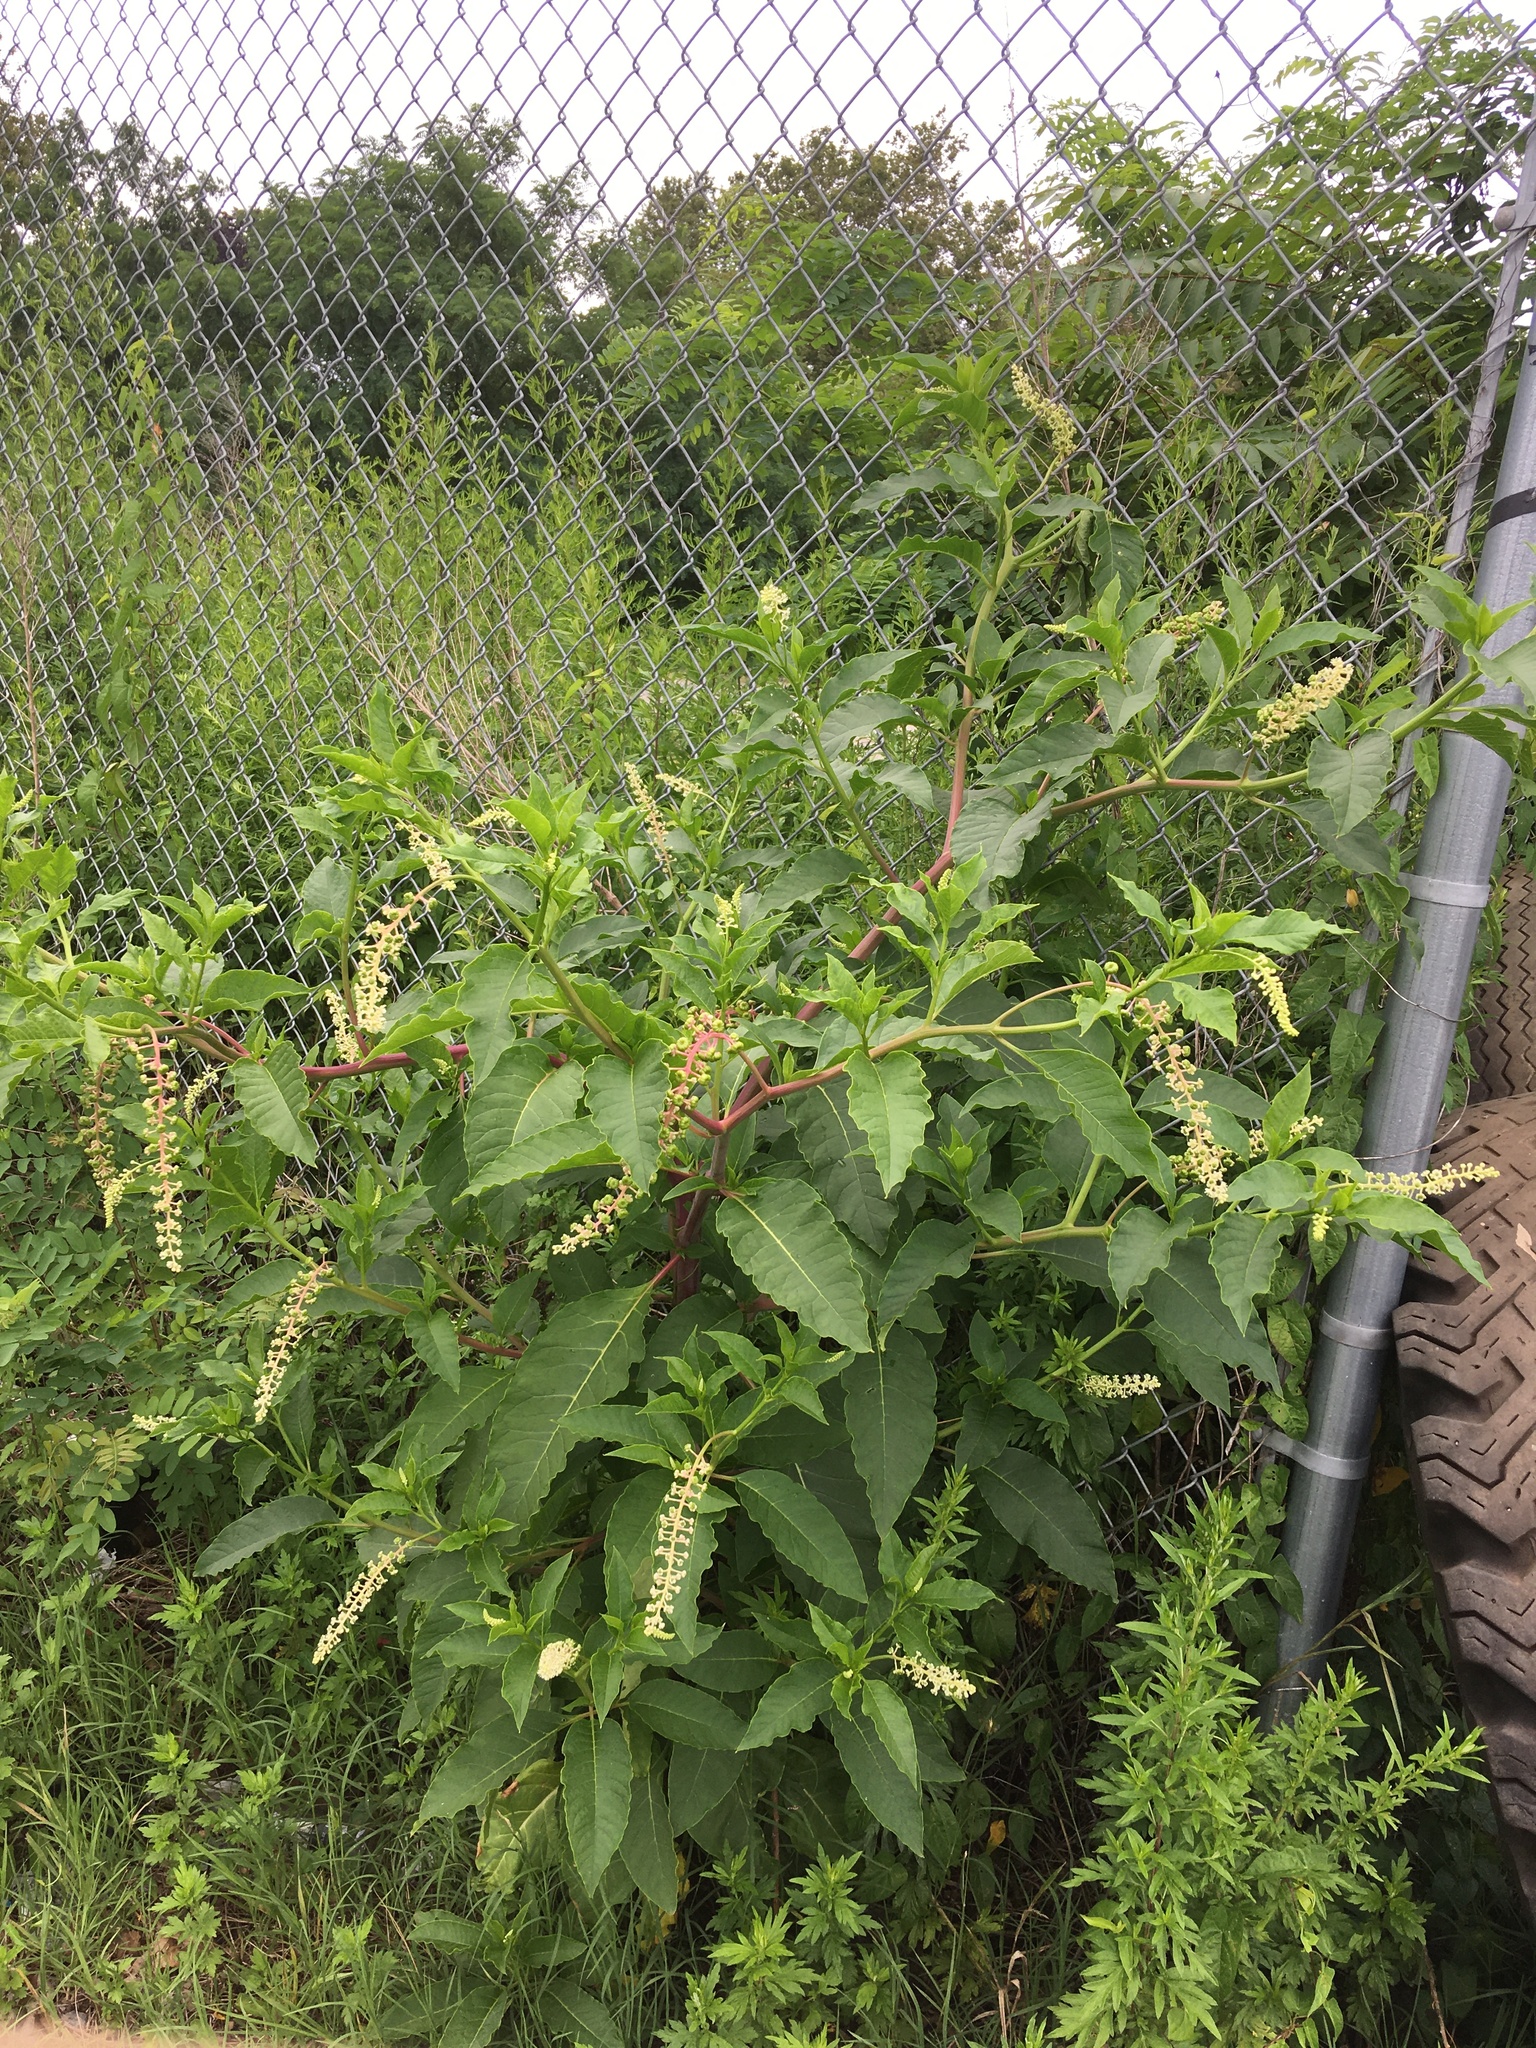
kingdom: Plantae
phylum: Tracheophyta
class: Magnoliopsida
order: Caryophyllales
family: Phytolaccaceae
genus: Phytolacca
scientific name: Phytolacca americana
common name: American pokeweed
